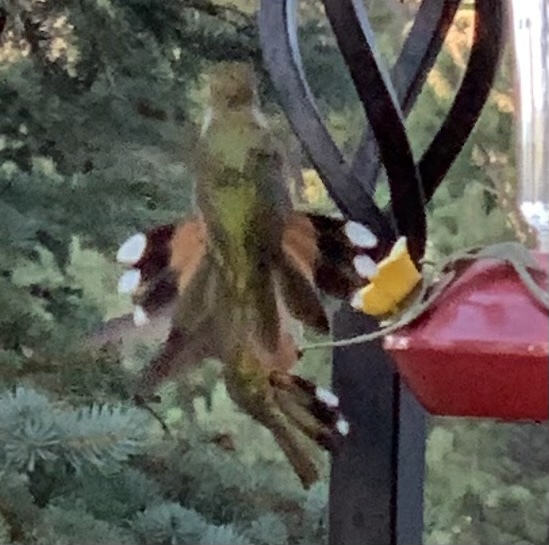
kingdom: Animalia
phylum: Chordata
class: Aves
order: Apodiformes
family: Trochilidae
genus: Selasphorus
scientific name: Selasphorus platycercus
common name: Broad-tailed hummingbird
